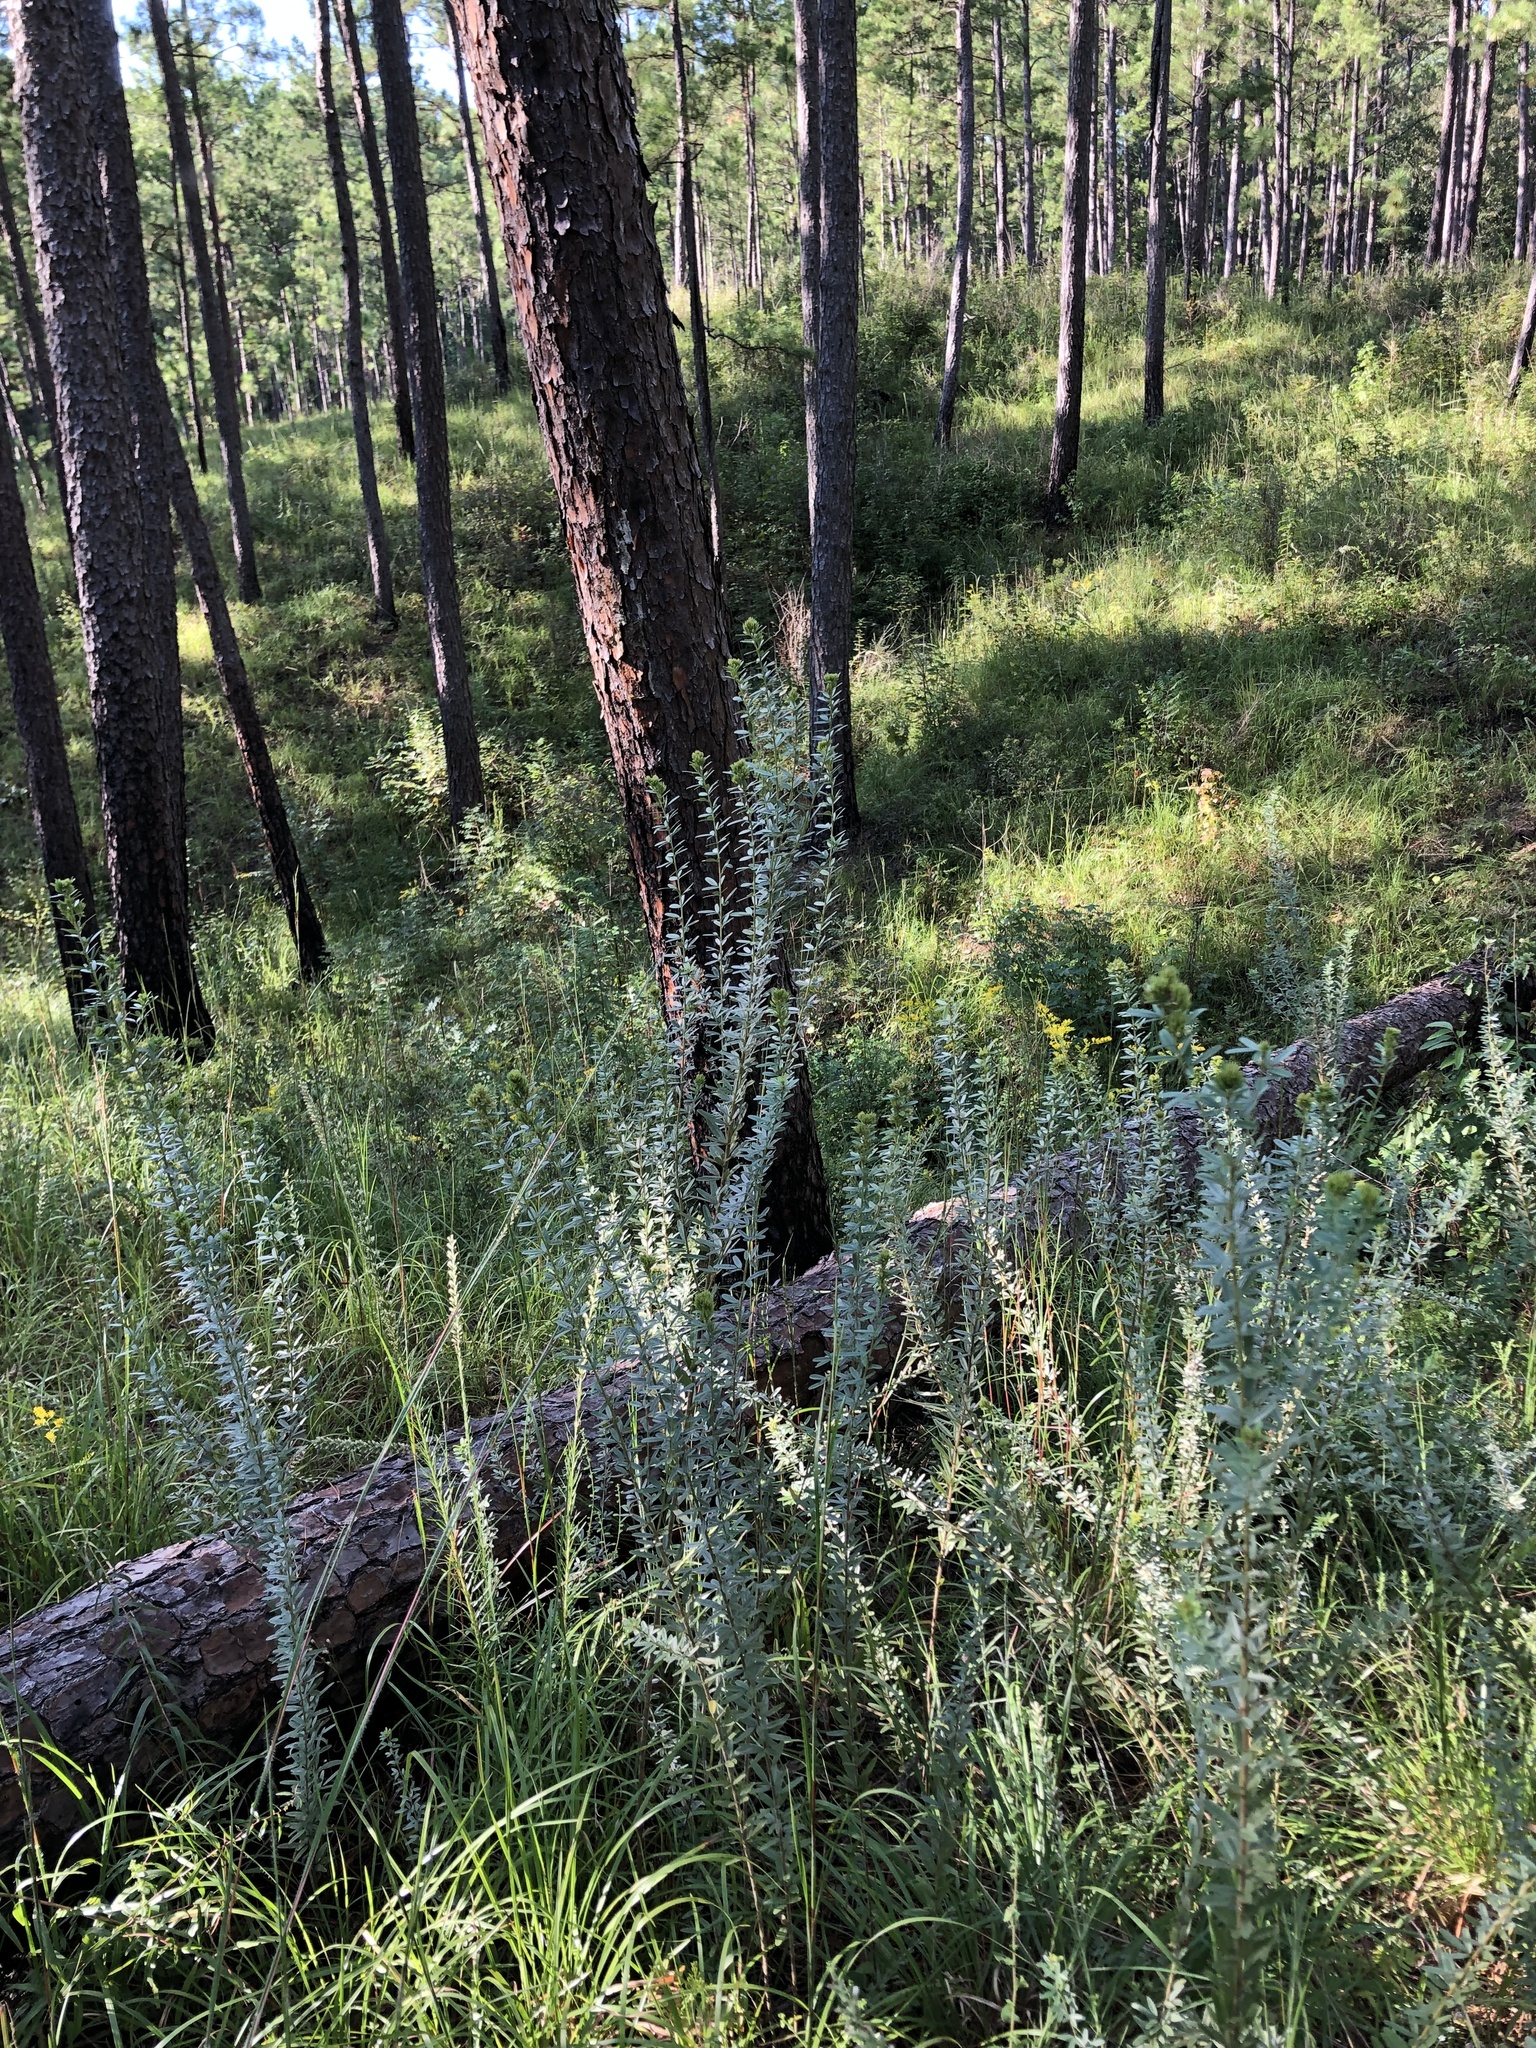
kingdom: Plantae
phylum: Tracheophyta
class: Magnoliopsida
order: Fabales
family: Fabaceae
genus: Lespedeza
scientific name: Lespedeza capitata
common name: Dusty clover
